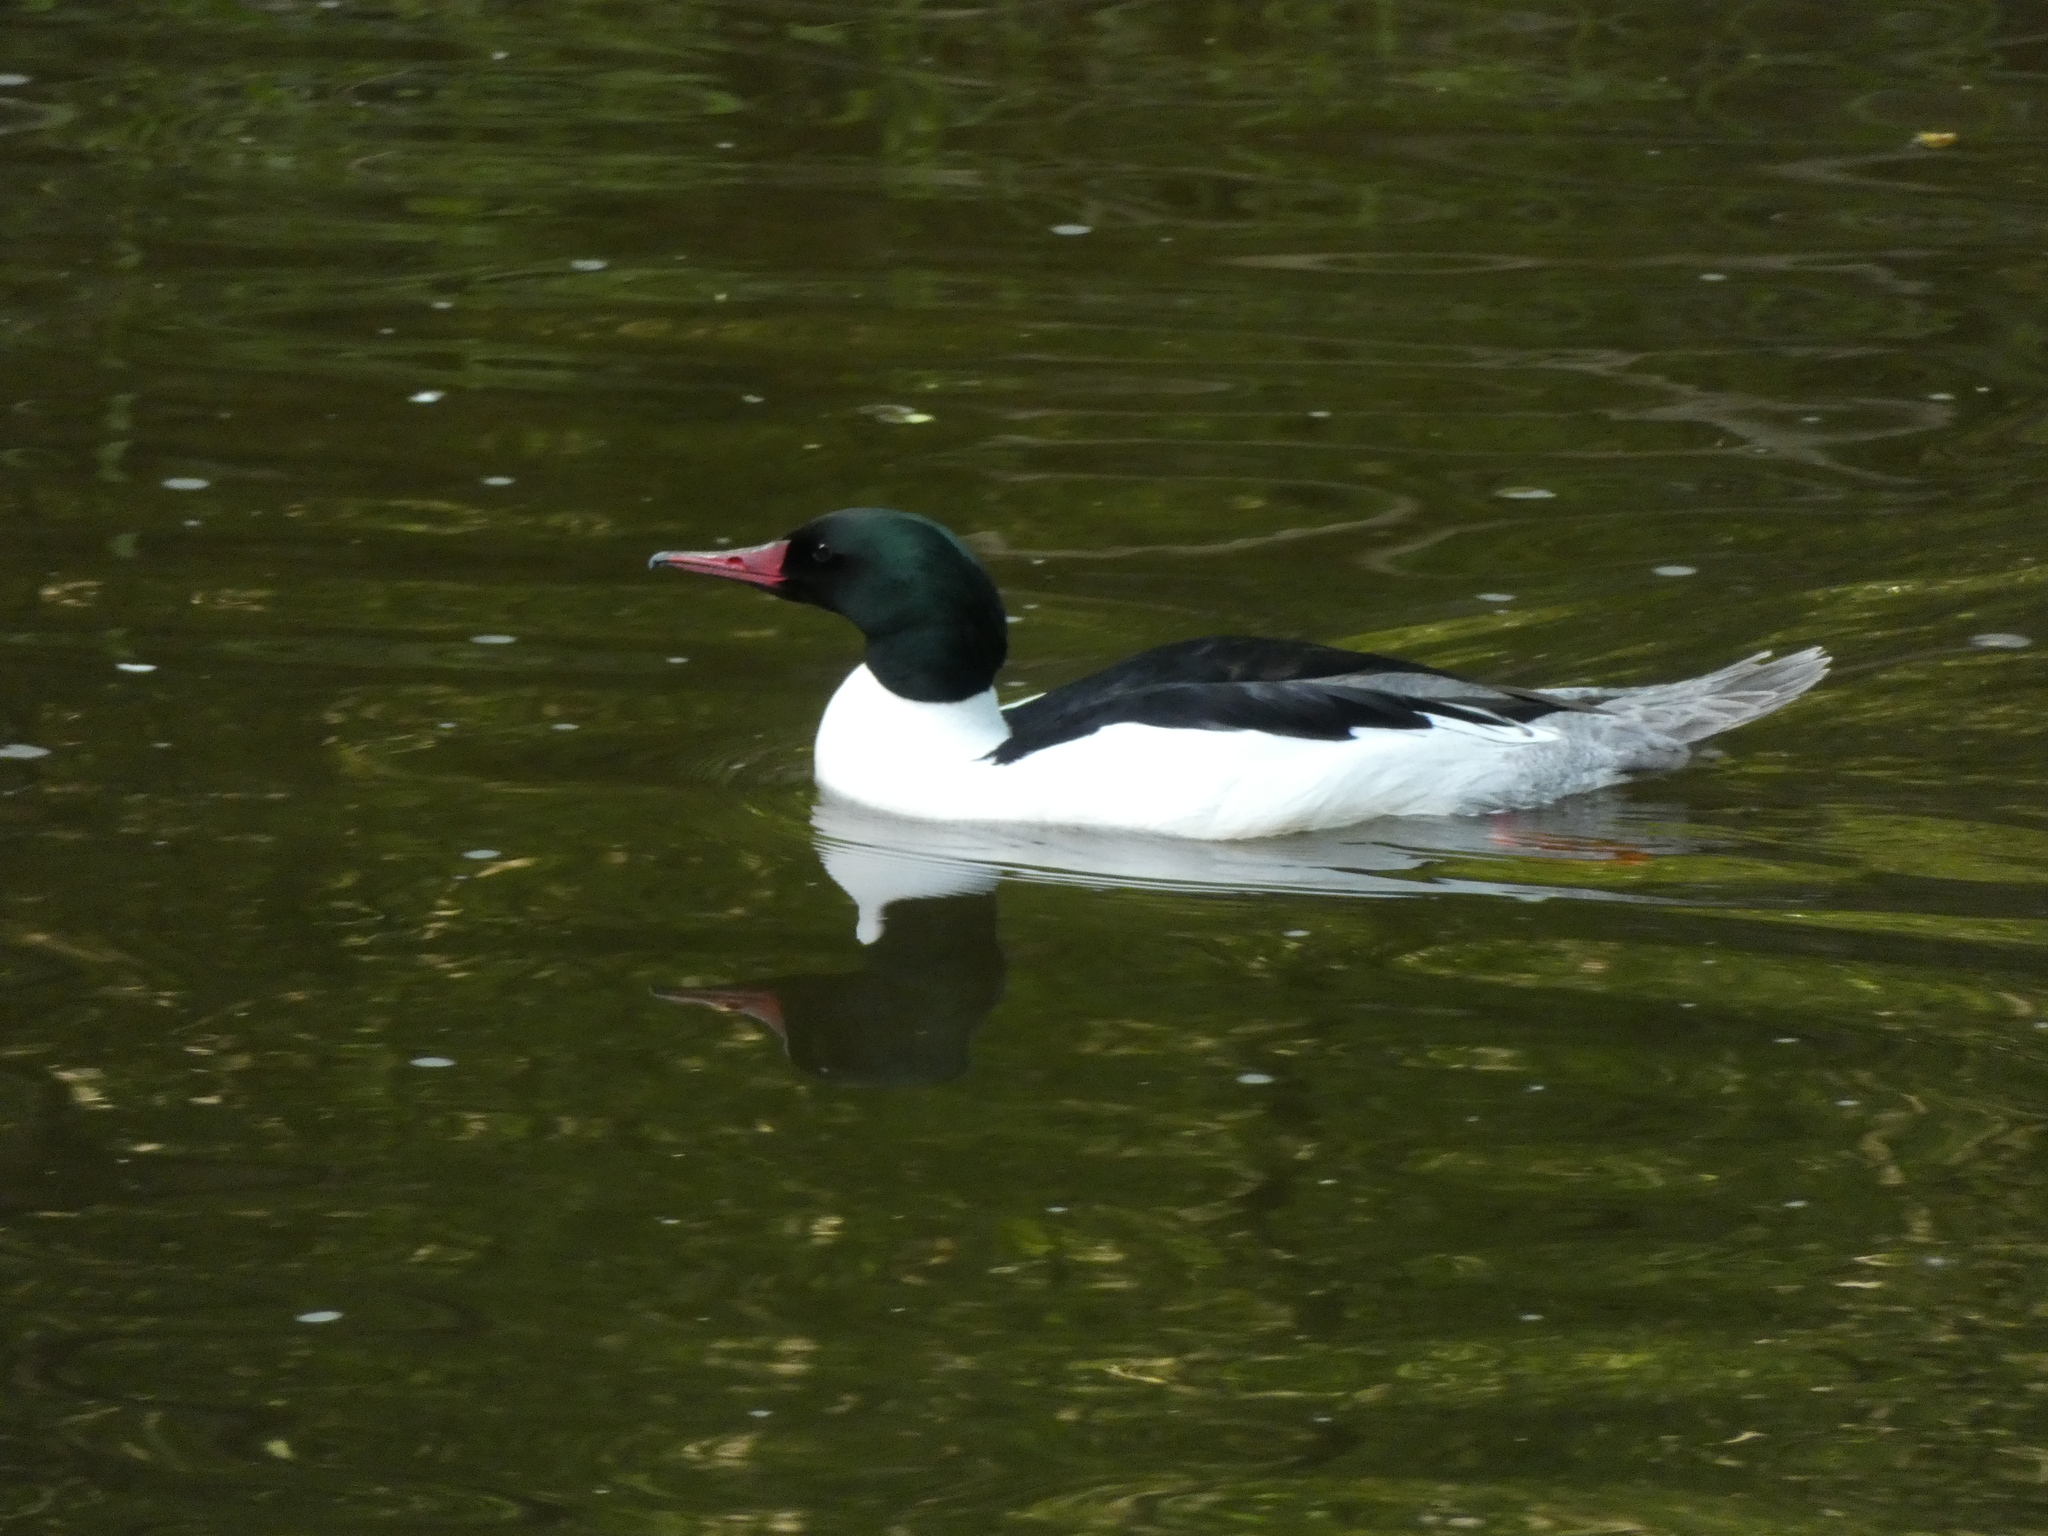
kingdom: Animalia
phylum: Chordata
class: Aves
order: Anseriformes
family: Anatidae
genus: Mergus
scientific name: Mergus merganser
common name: Common merganser
